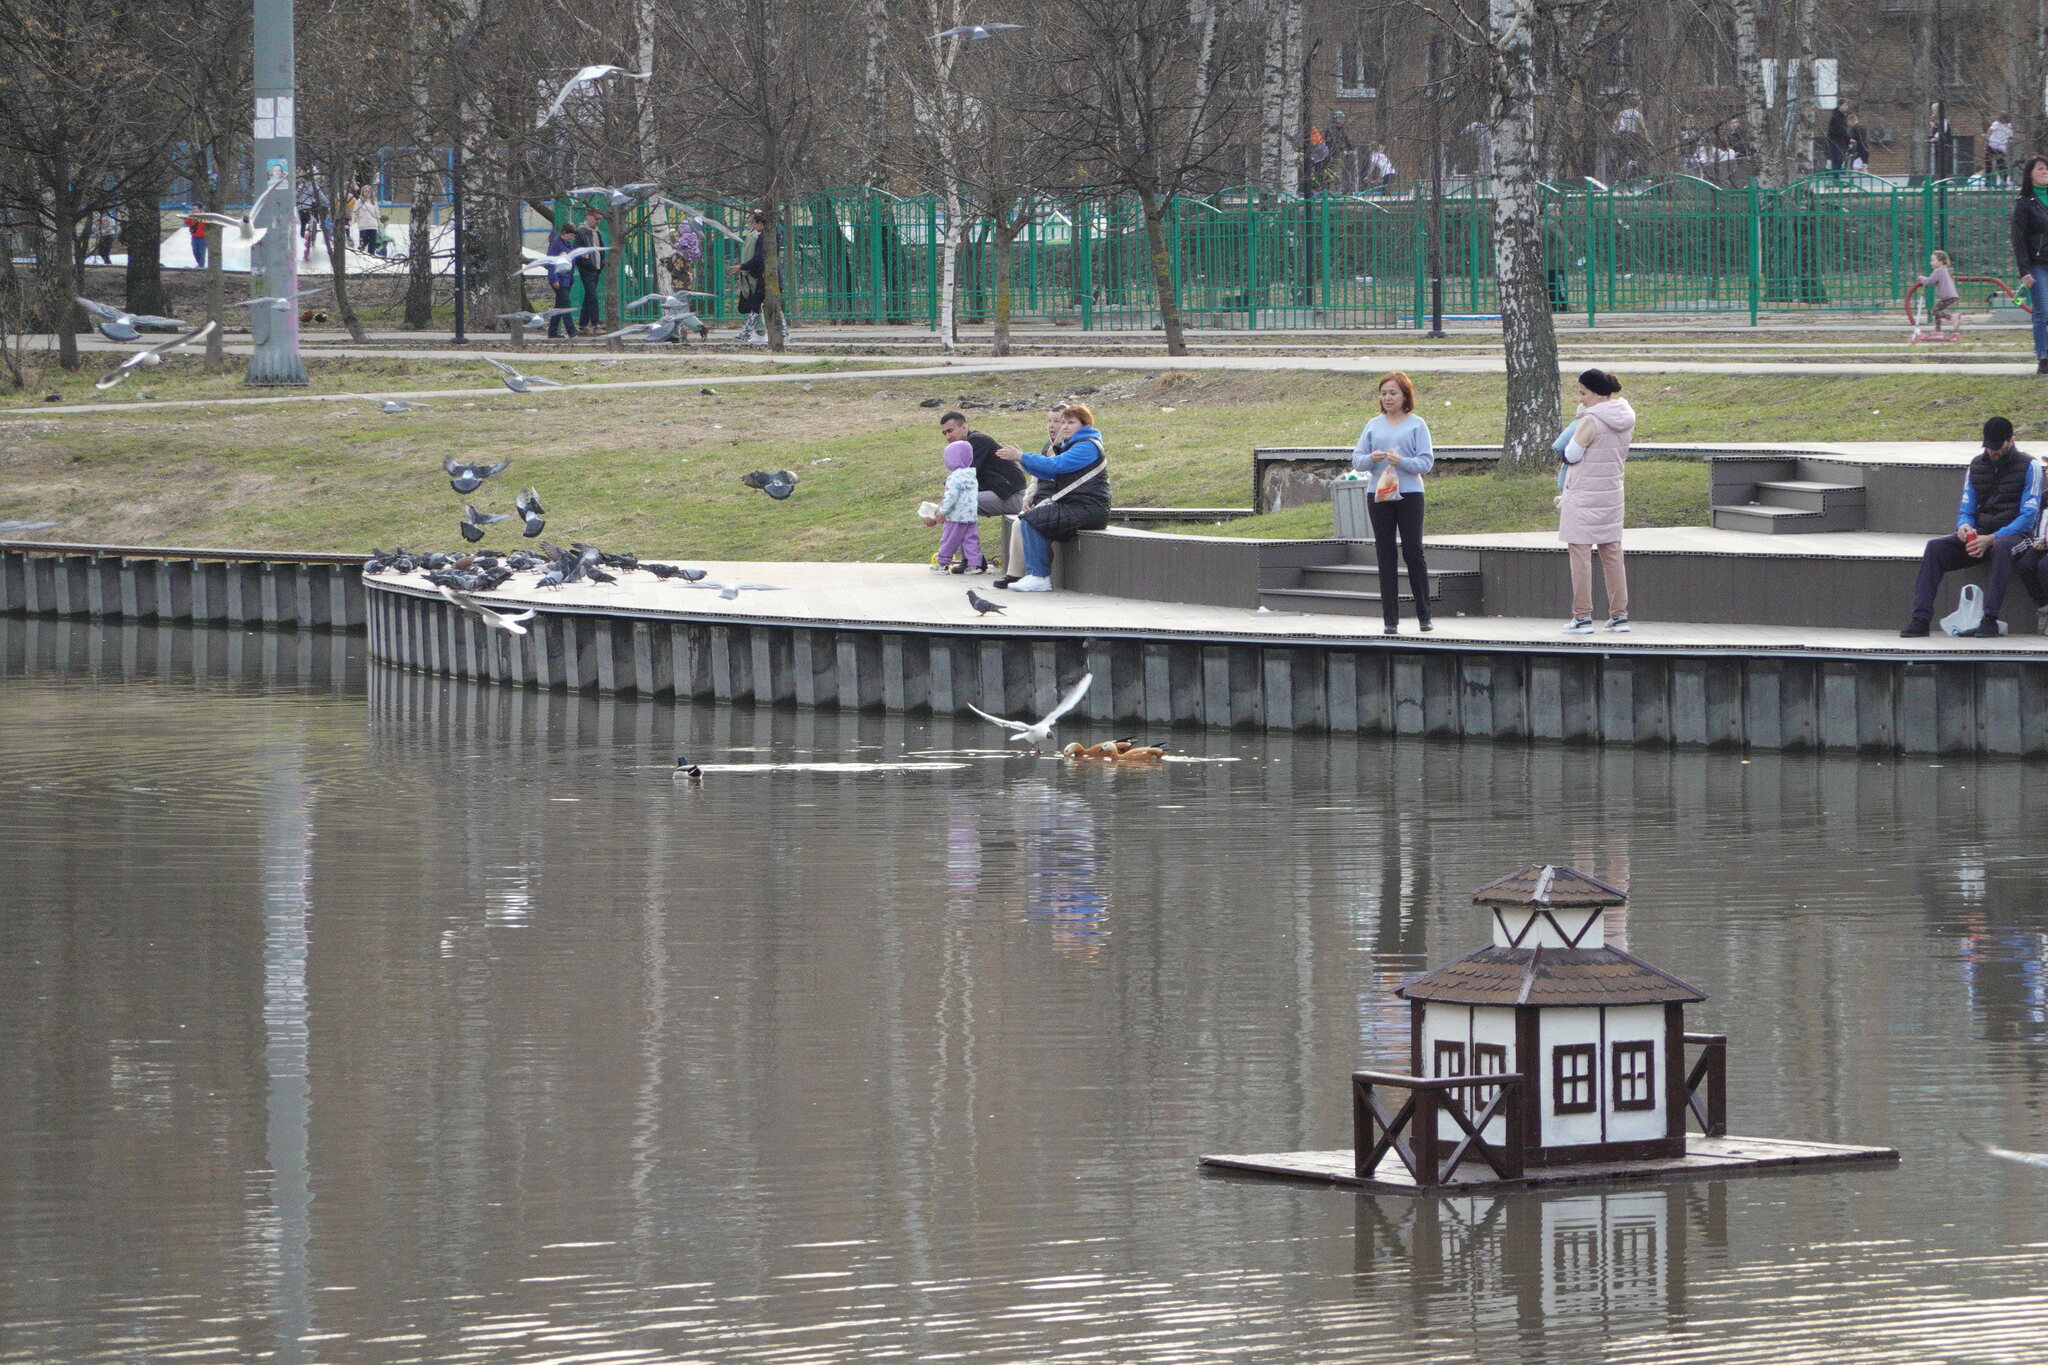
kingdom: Animalia
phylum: Chordata
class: Aves
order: Anseriformes
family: Anatidae
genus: Tadorna
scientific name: Tadorna ferruginea
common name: Ruddy shelduck
